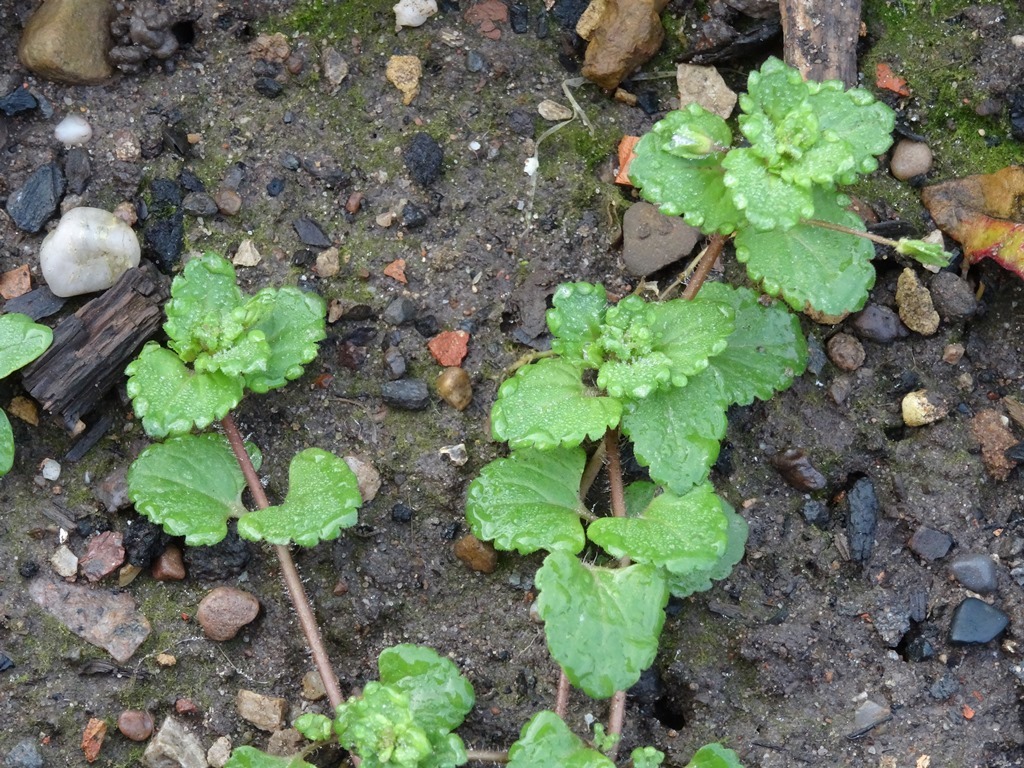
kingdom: Plantae
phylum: Tracheophyta
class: Magnoliopsida
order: Lamiales
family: Plantaginaceae
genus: Veronica
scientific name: Veronica persica
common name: Common field-speedwell
